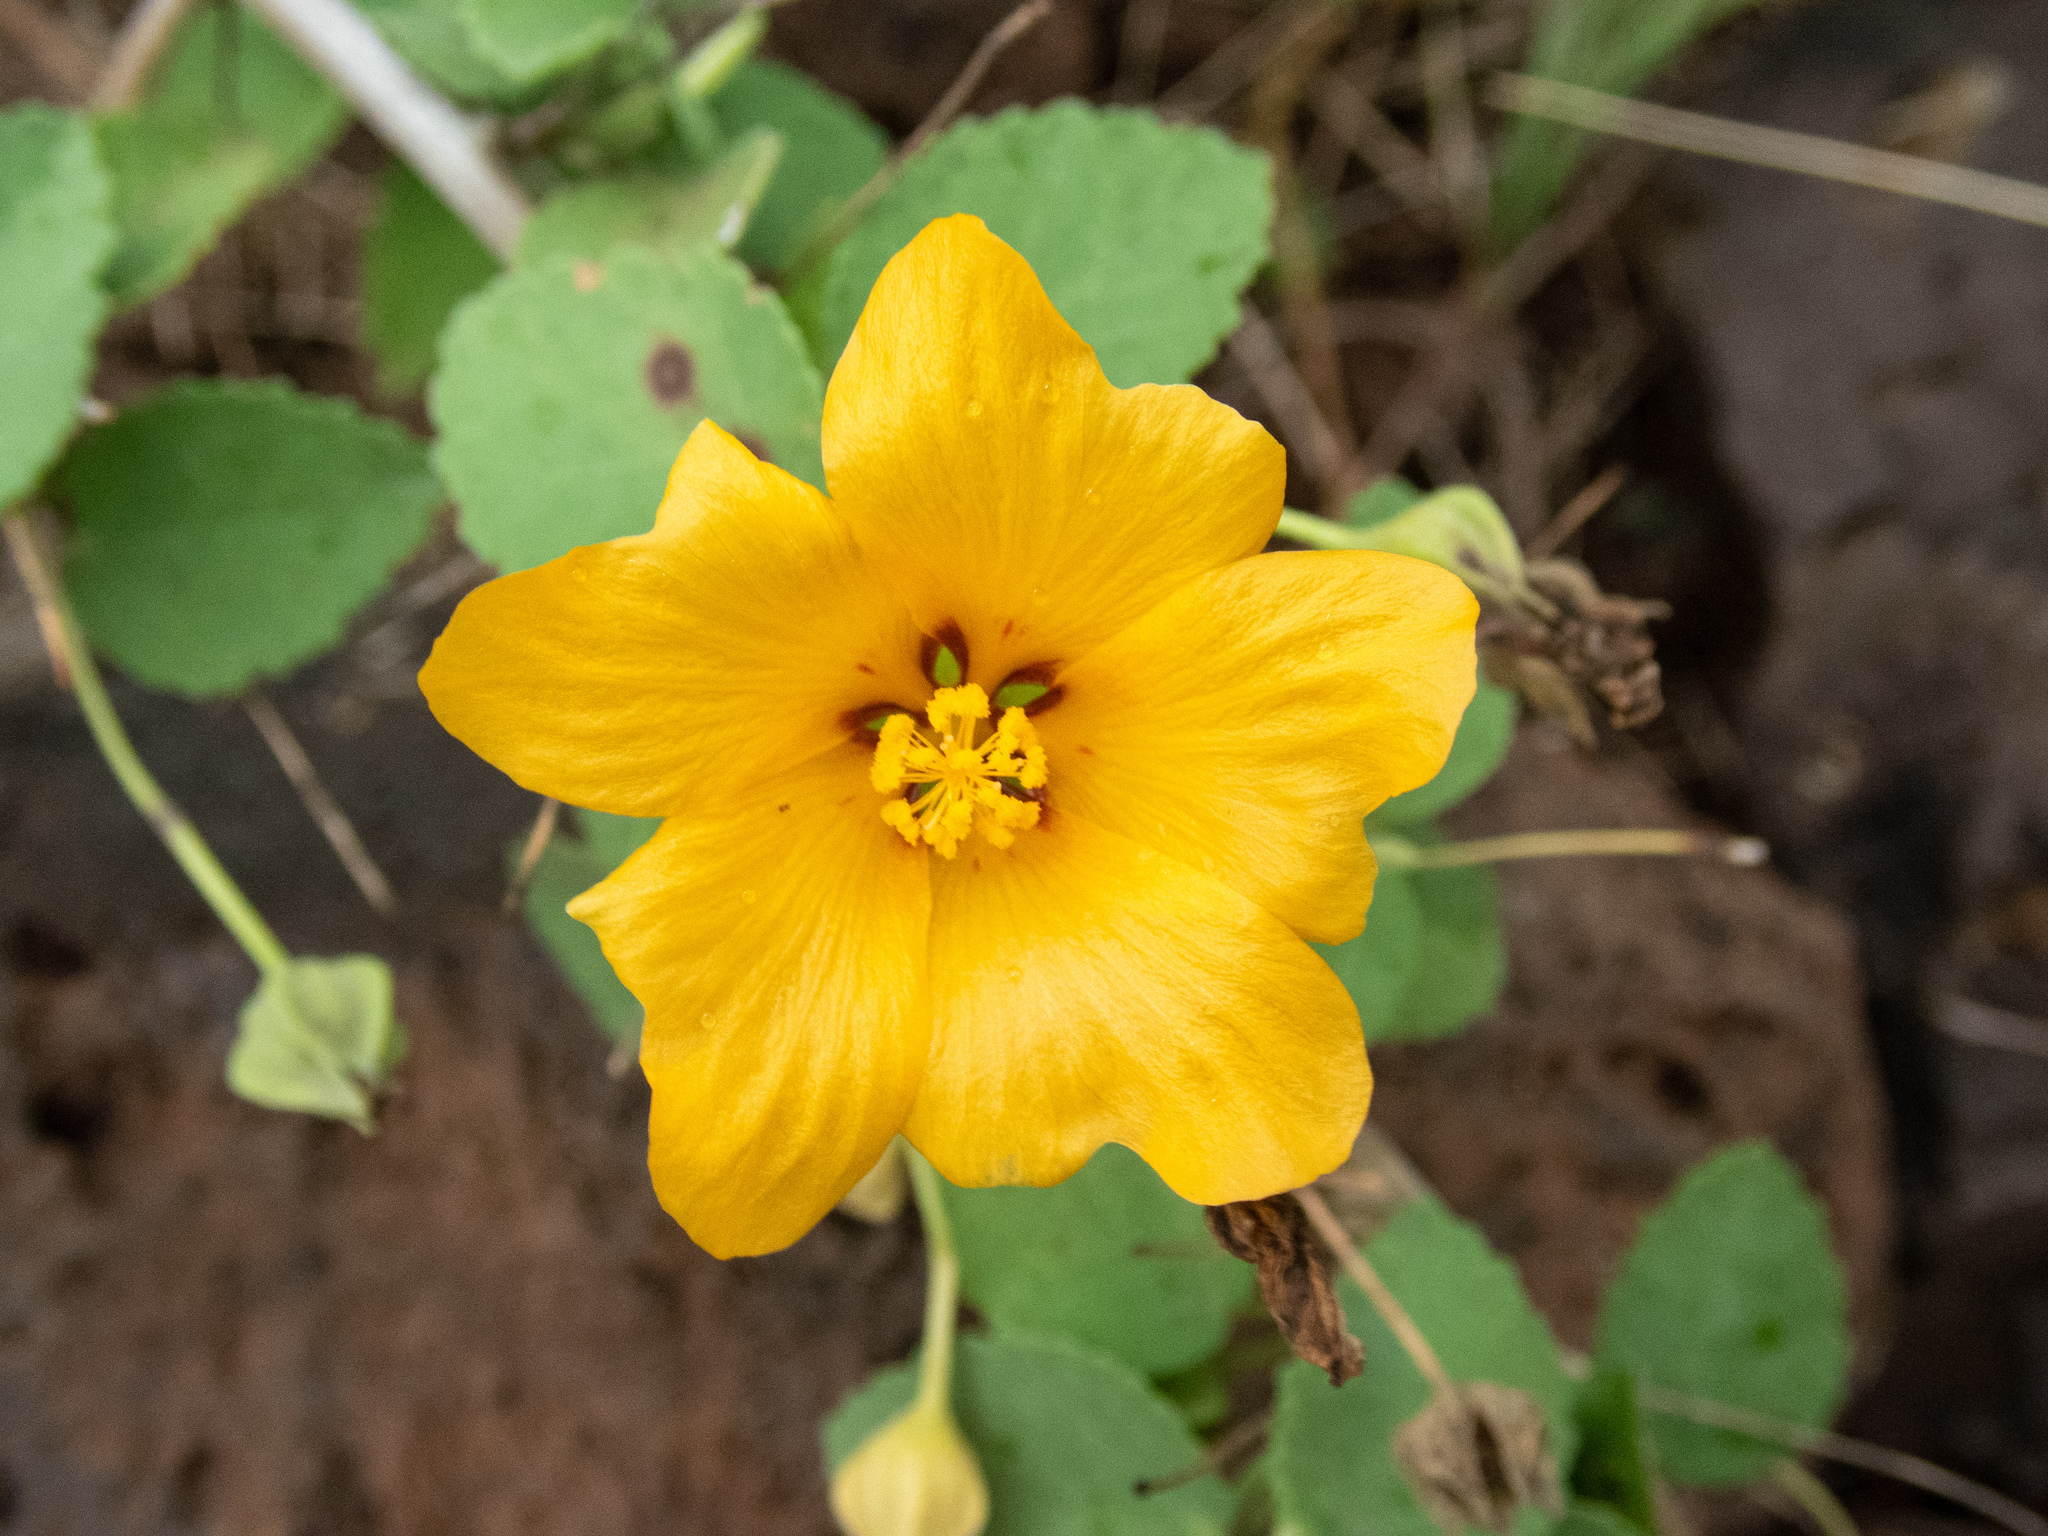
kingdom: Plantae
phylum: Tracheophyta
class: Magnoliopsida
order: Malvales
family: Malvaceae
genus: Sida
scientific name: Sida fallax
